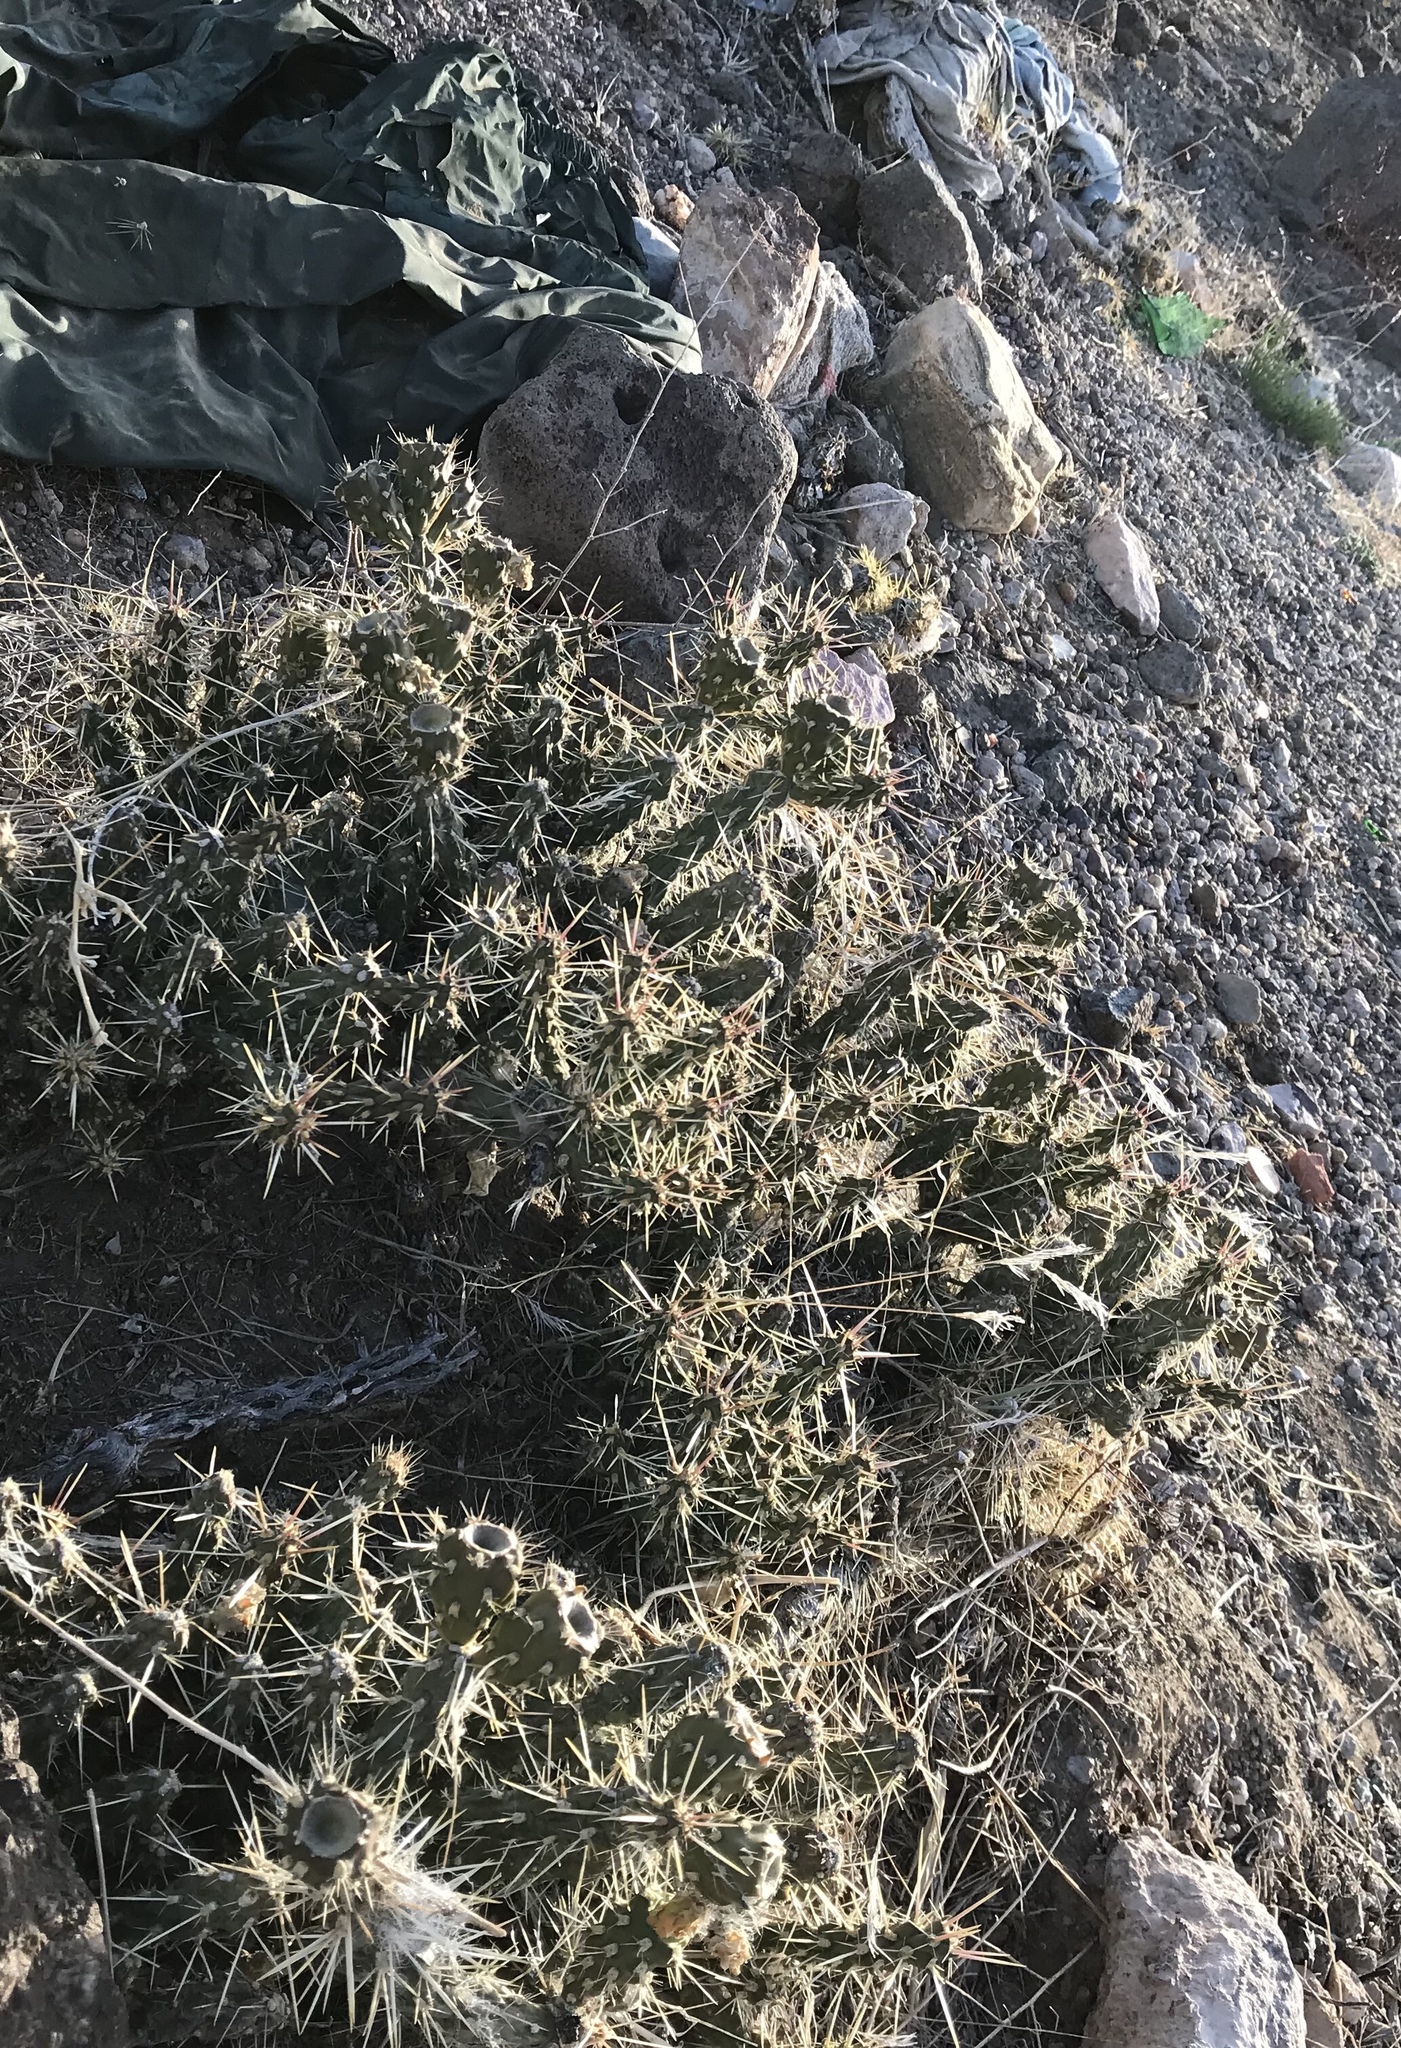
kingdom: Plantae
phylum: Tracheophyta
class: Magnoliopsida
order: Caryophyllales
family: Cactaceae
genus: Cylindropuntia
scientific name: Cylindropuntia whipplei
